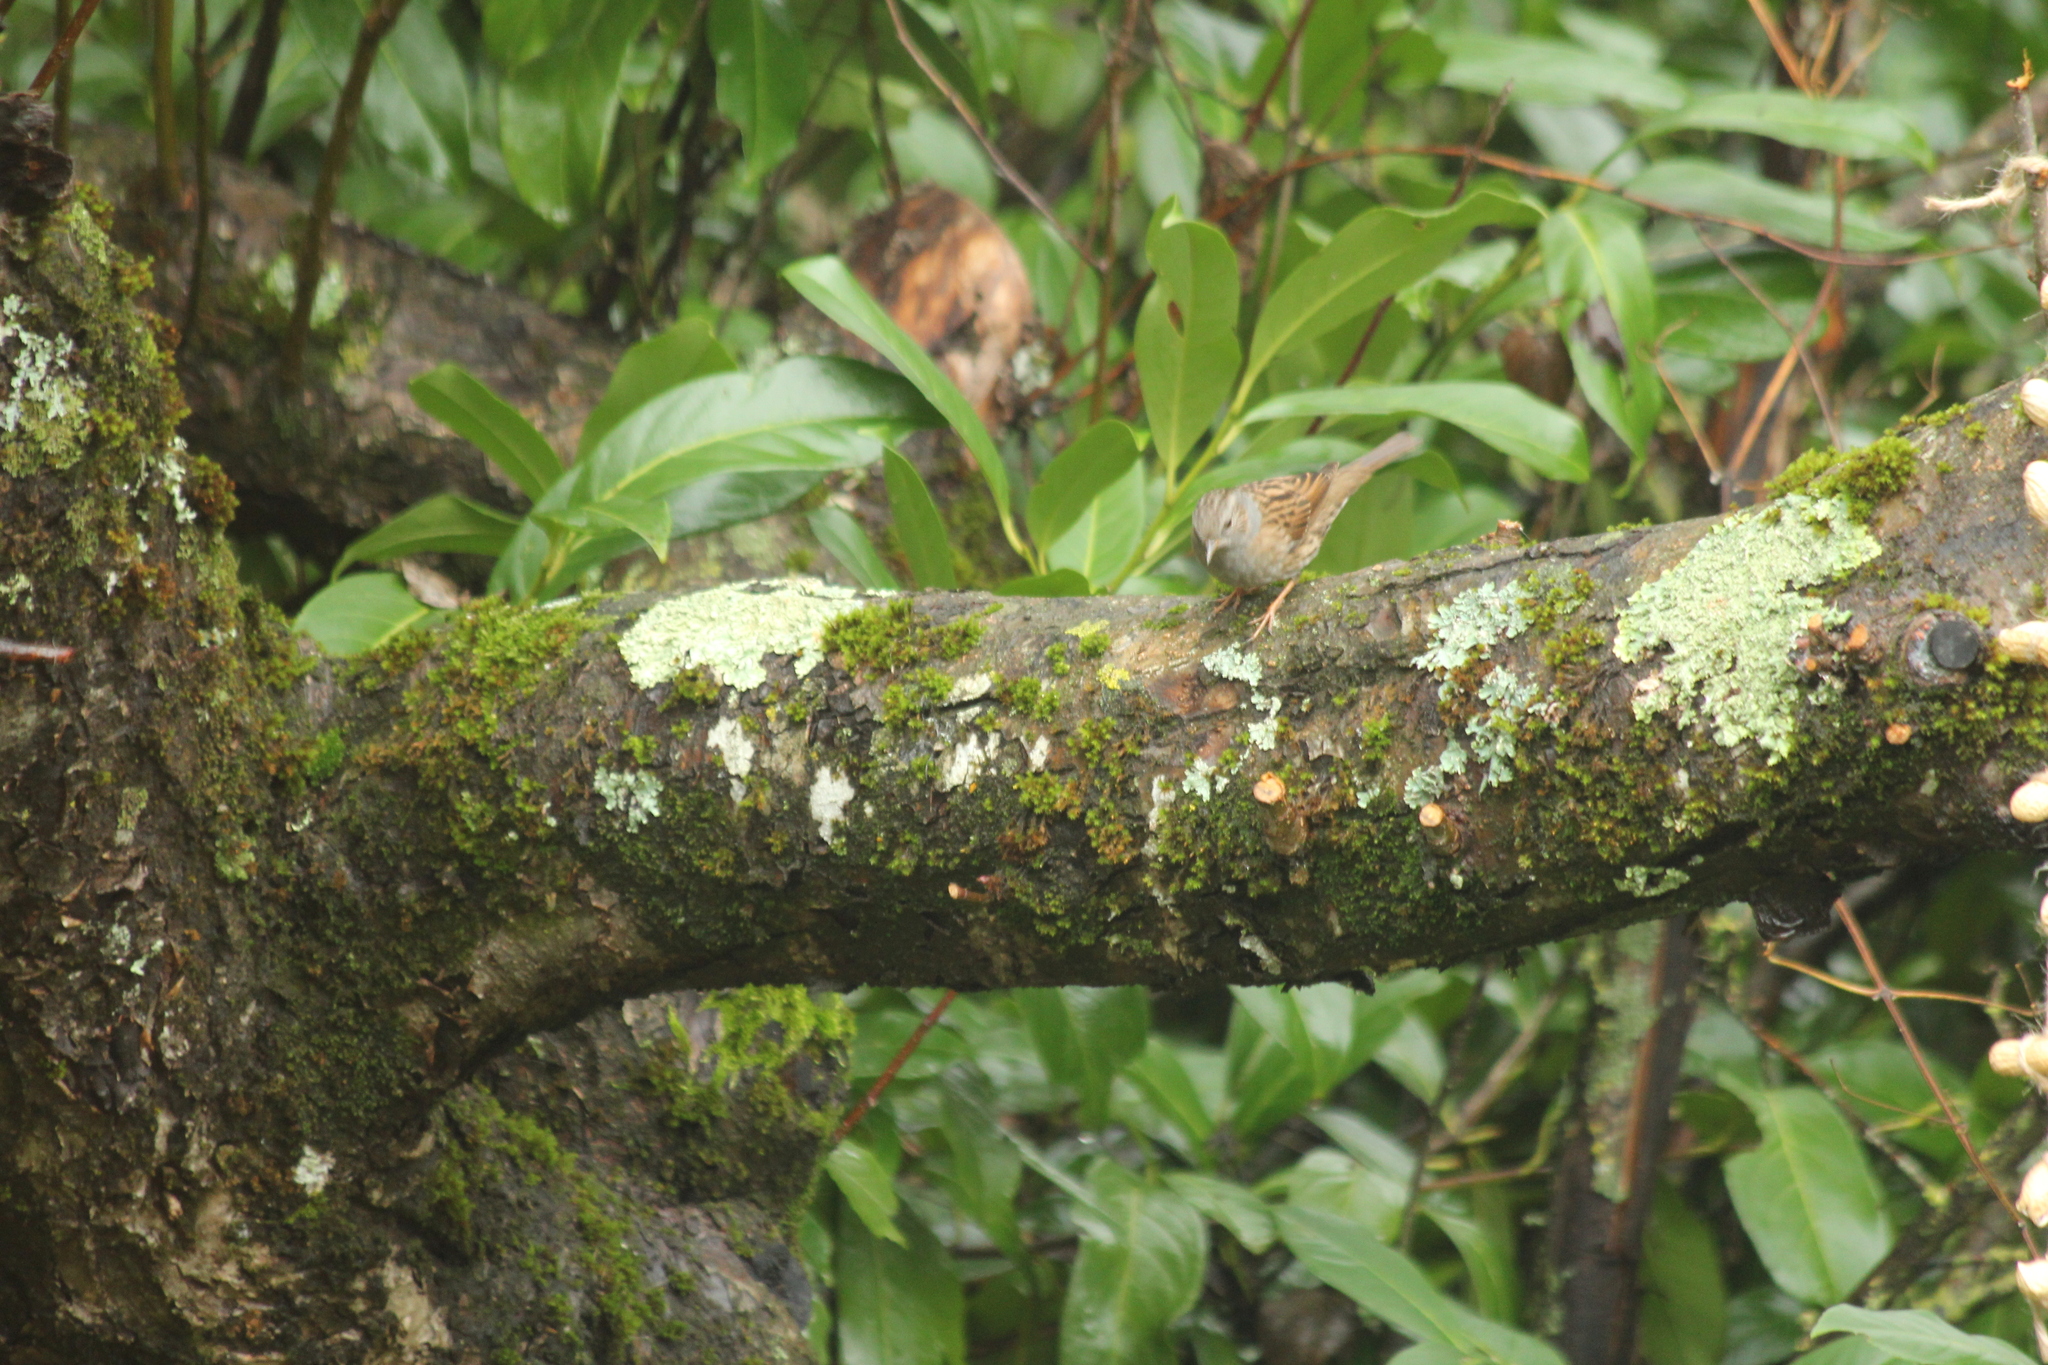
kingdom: Animalia
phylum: Chordata
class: Aves
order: Passeriformes
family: Prunellidae
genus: Prunella
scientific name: Prunella modularis
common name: Dunnock
